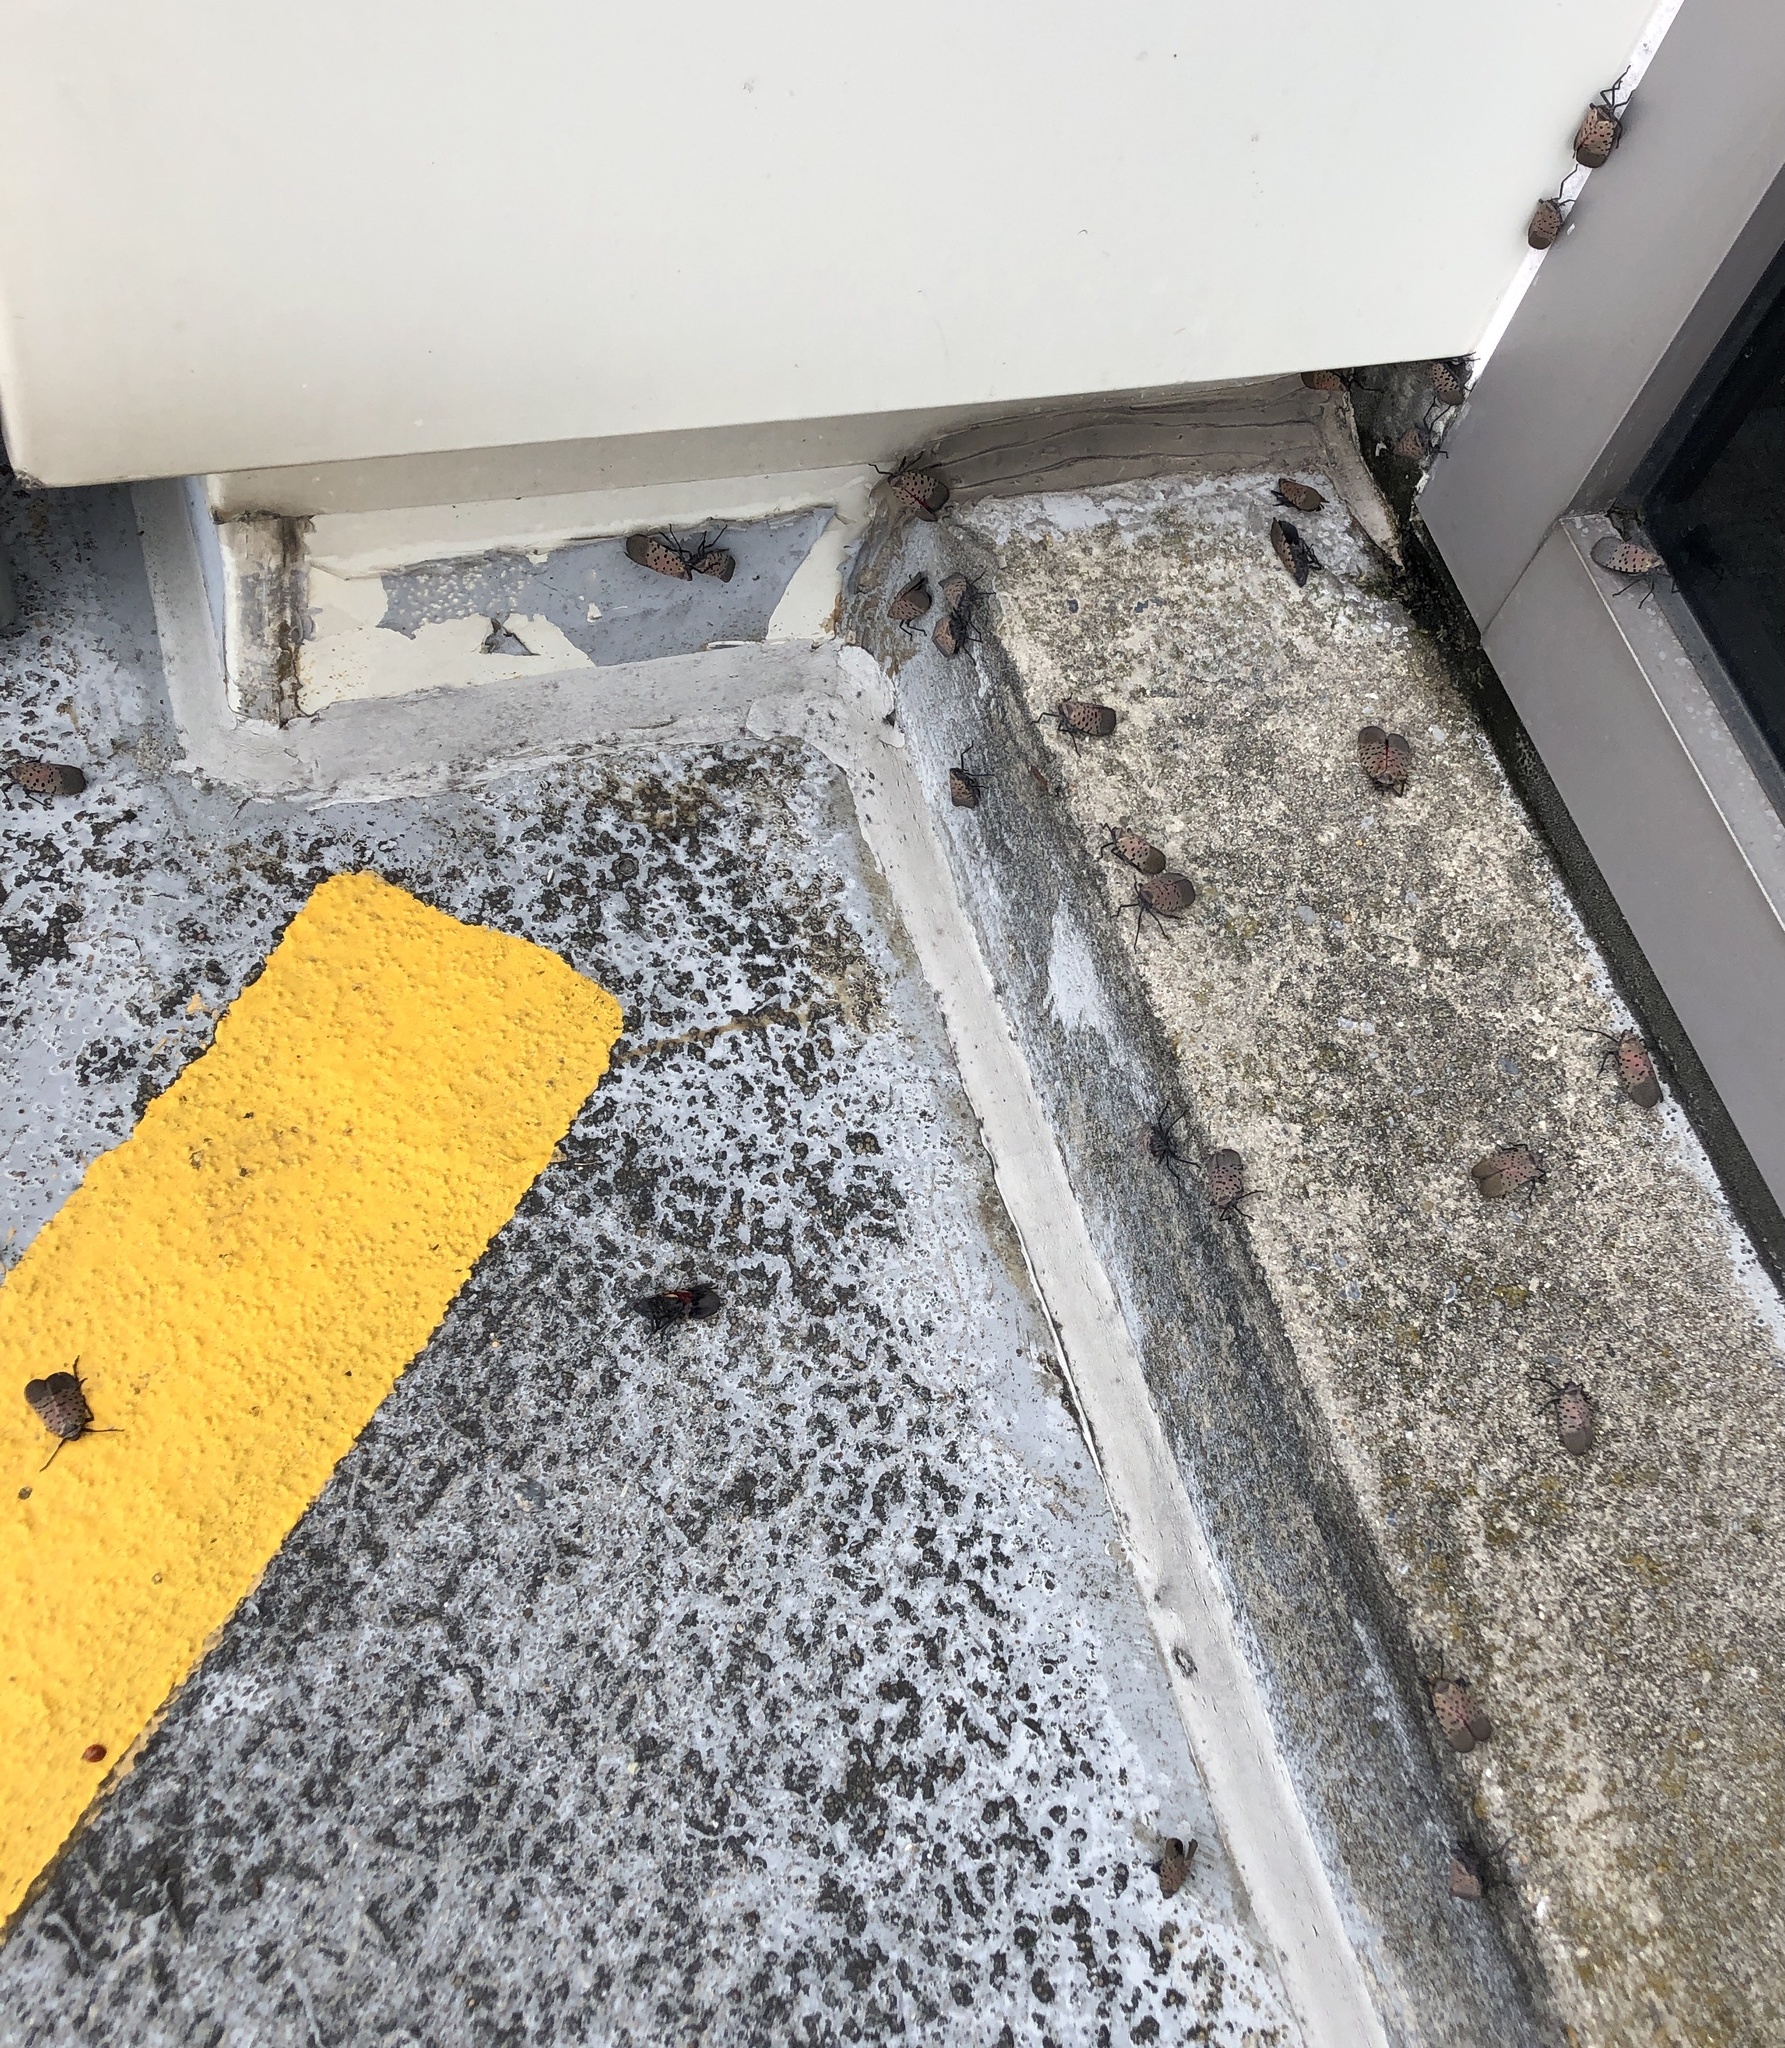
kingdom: Animalia
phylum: Arthropoda
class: Insecta
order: Hemiptera
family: Fulgoridae
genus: Lycorma
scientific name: Lycorma delicatula
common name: Spotted lanternfly
